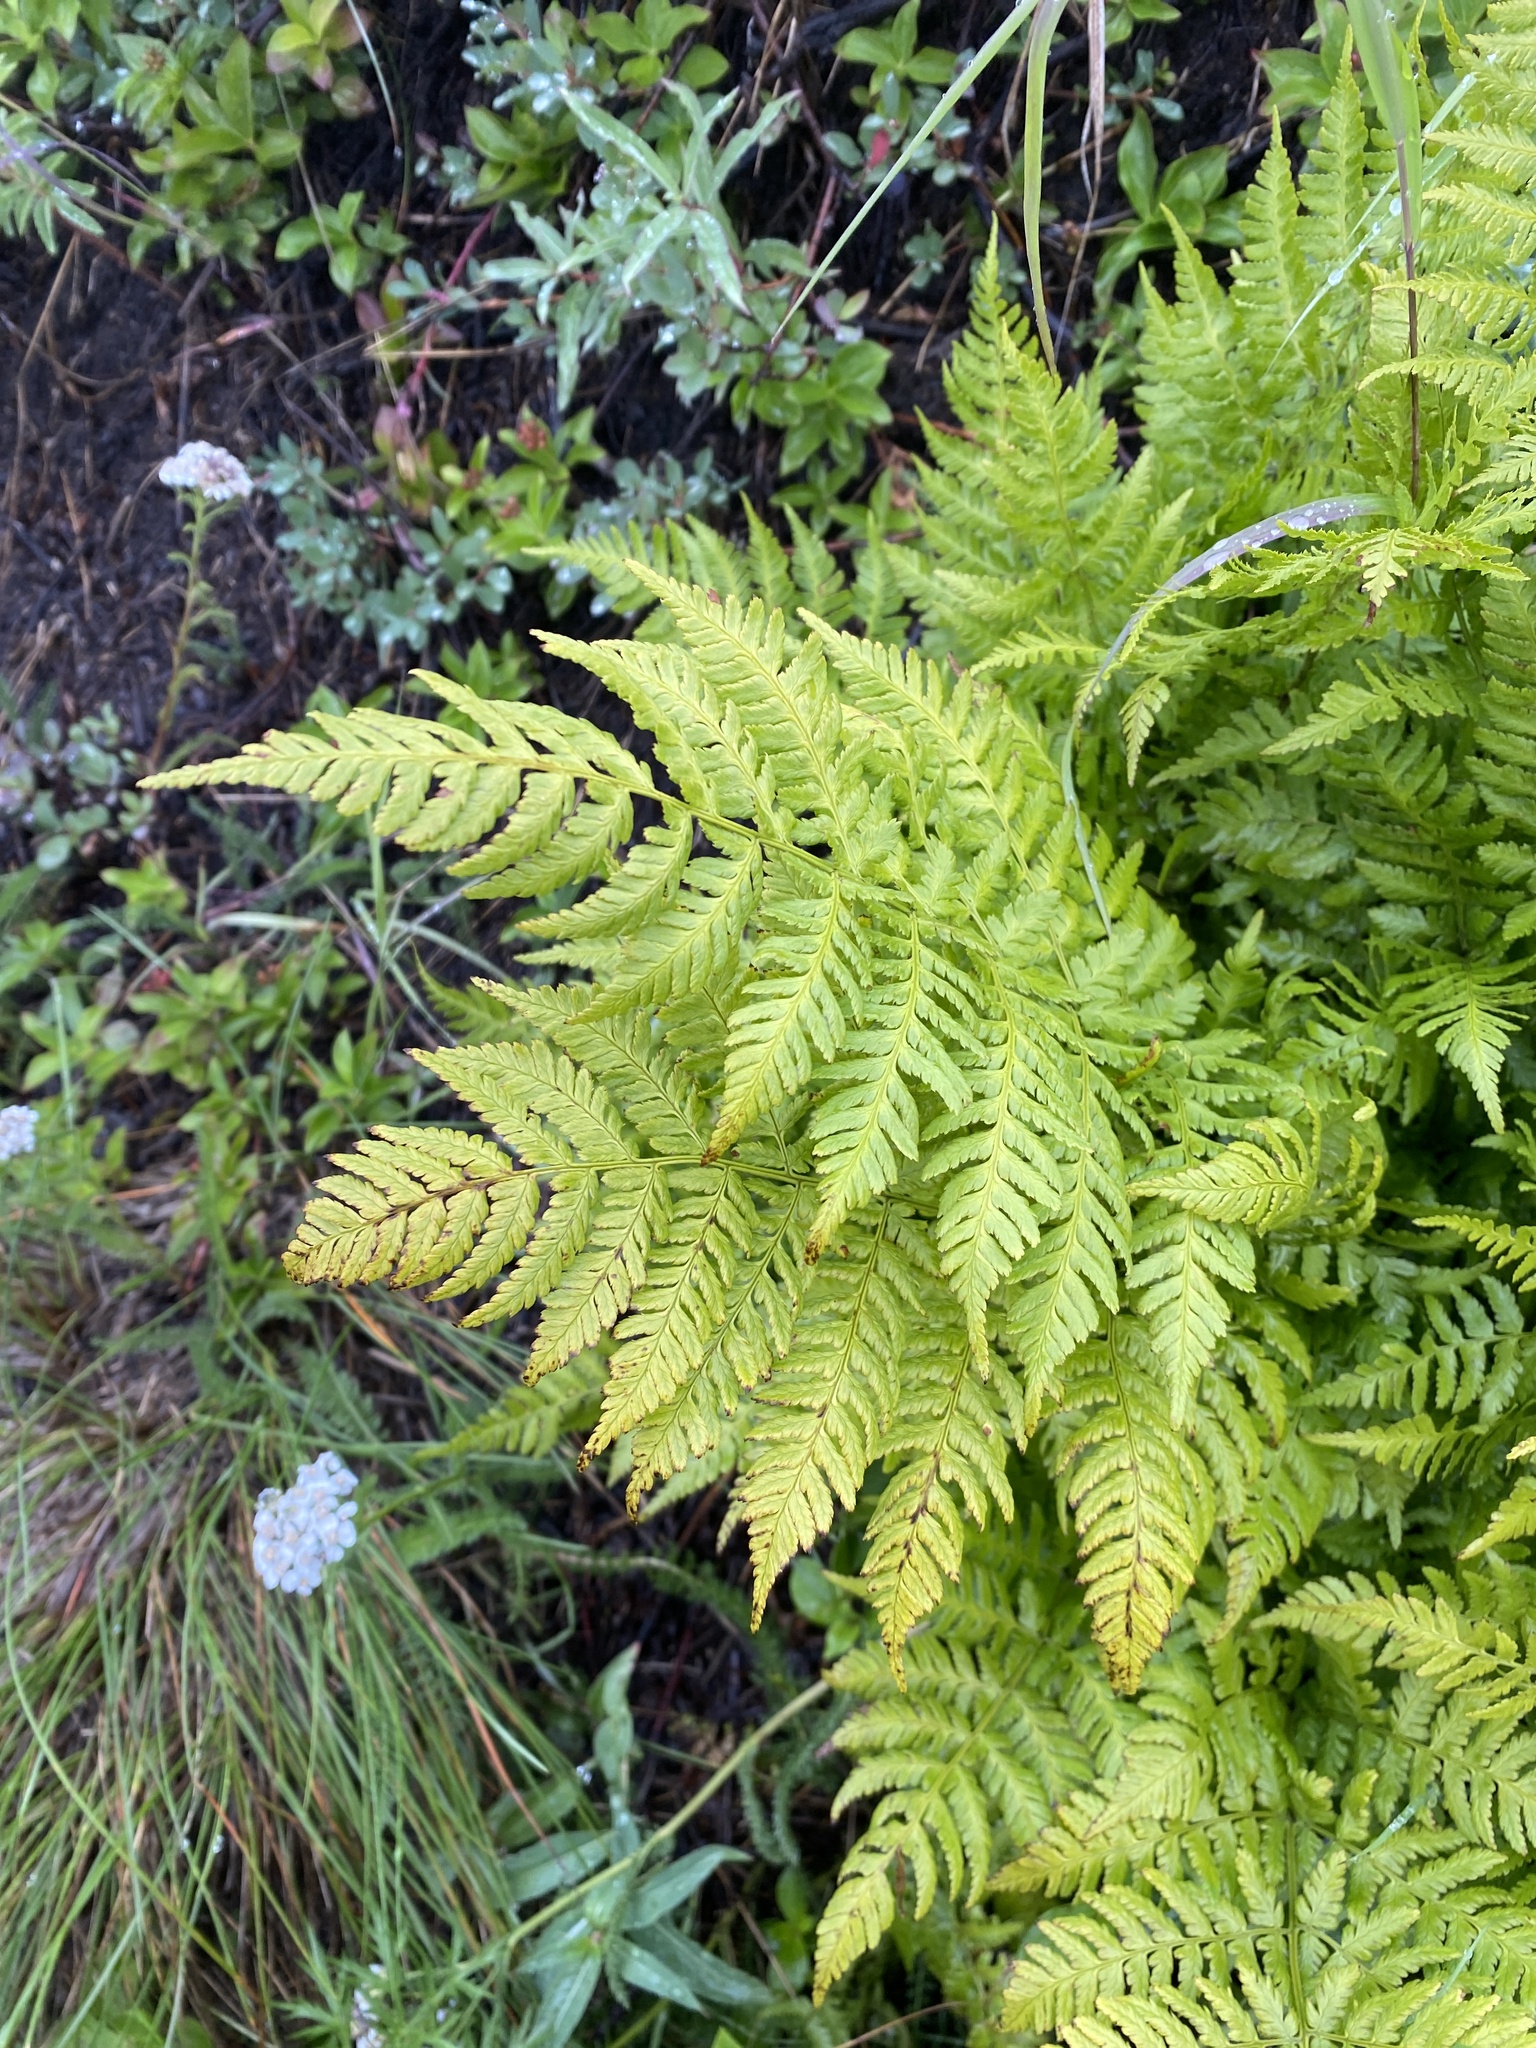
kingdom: Plantae
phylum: Tracheophyta
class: Polypodiopsida
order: Polypodiales
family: Dryopteridaceae
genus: Dryopteris
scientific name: Dryopteris expansa
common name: Northern buckler fern
